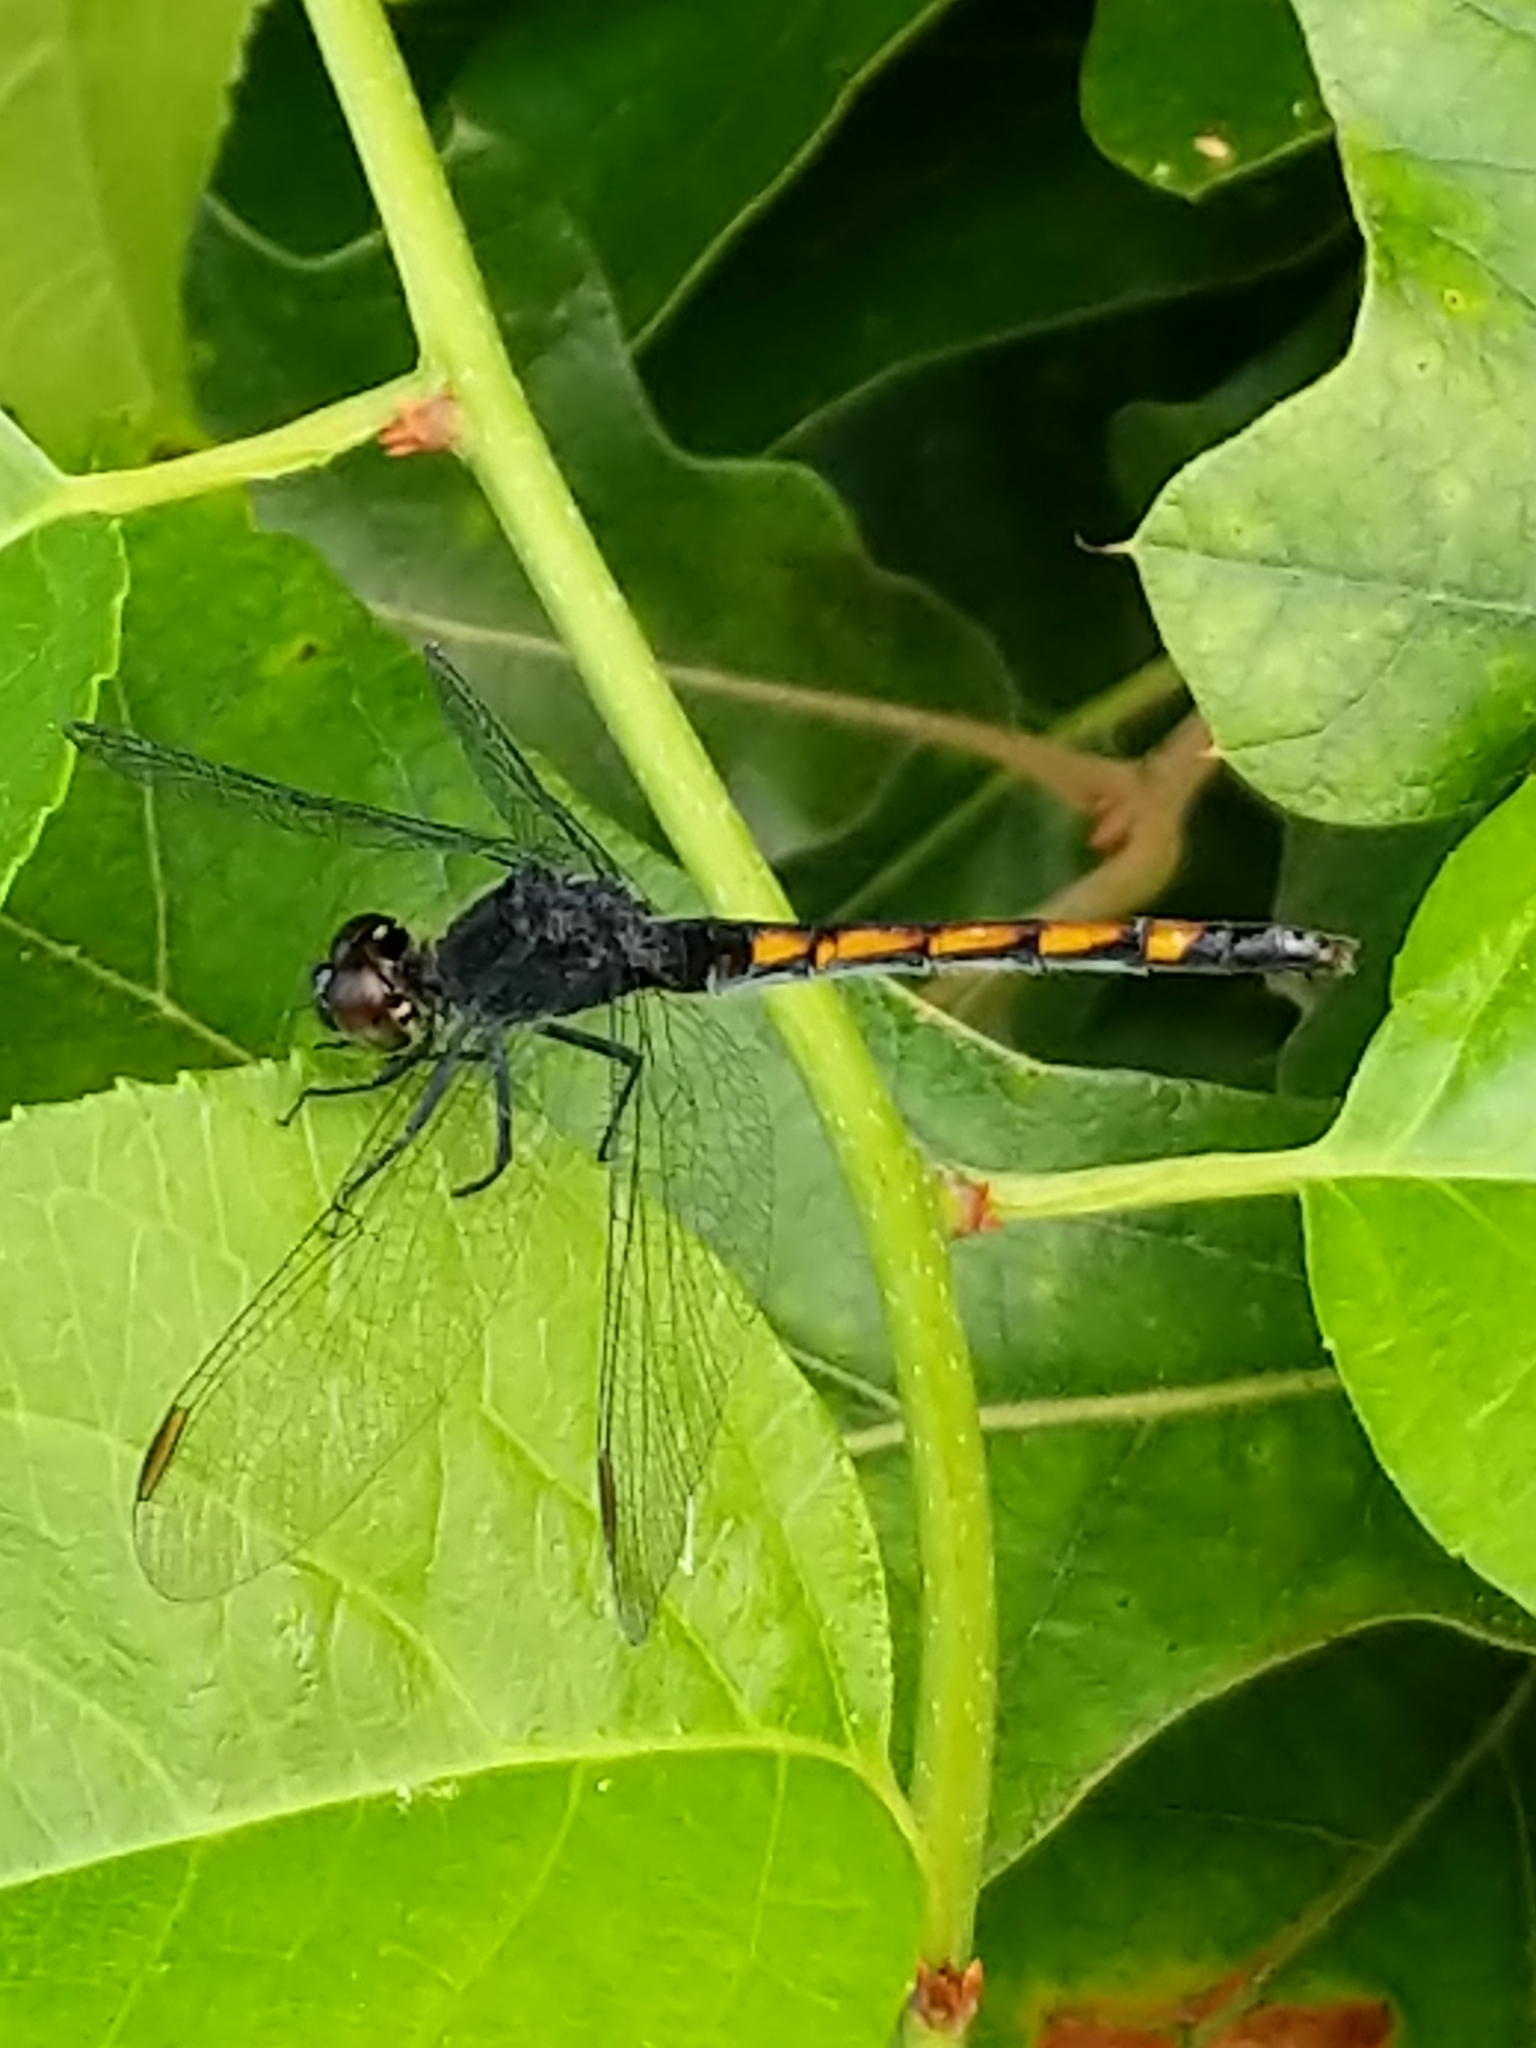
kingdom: Animalia
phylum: Arthropoda
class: Insecta
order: Odonata
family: Libellulidae
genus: Erythrodiplax
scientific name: Erythrodiplax berenice
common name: Seaside dragonlet
